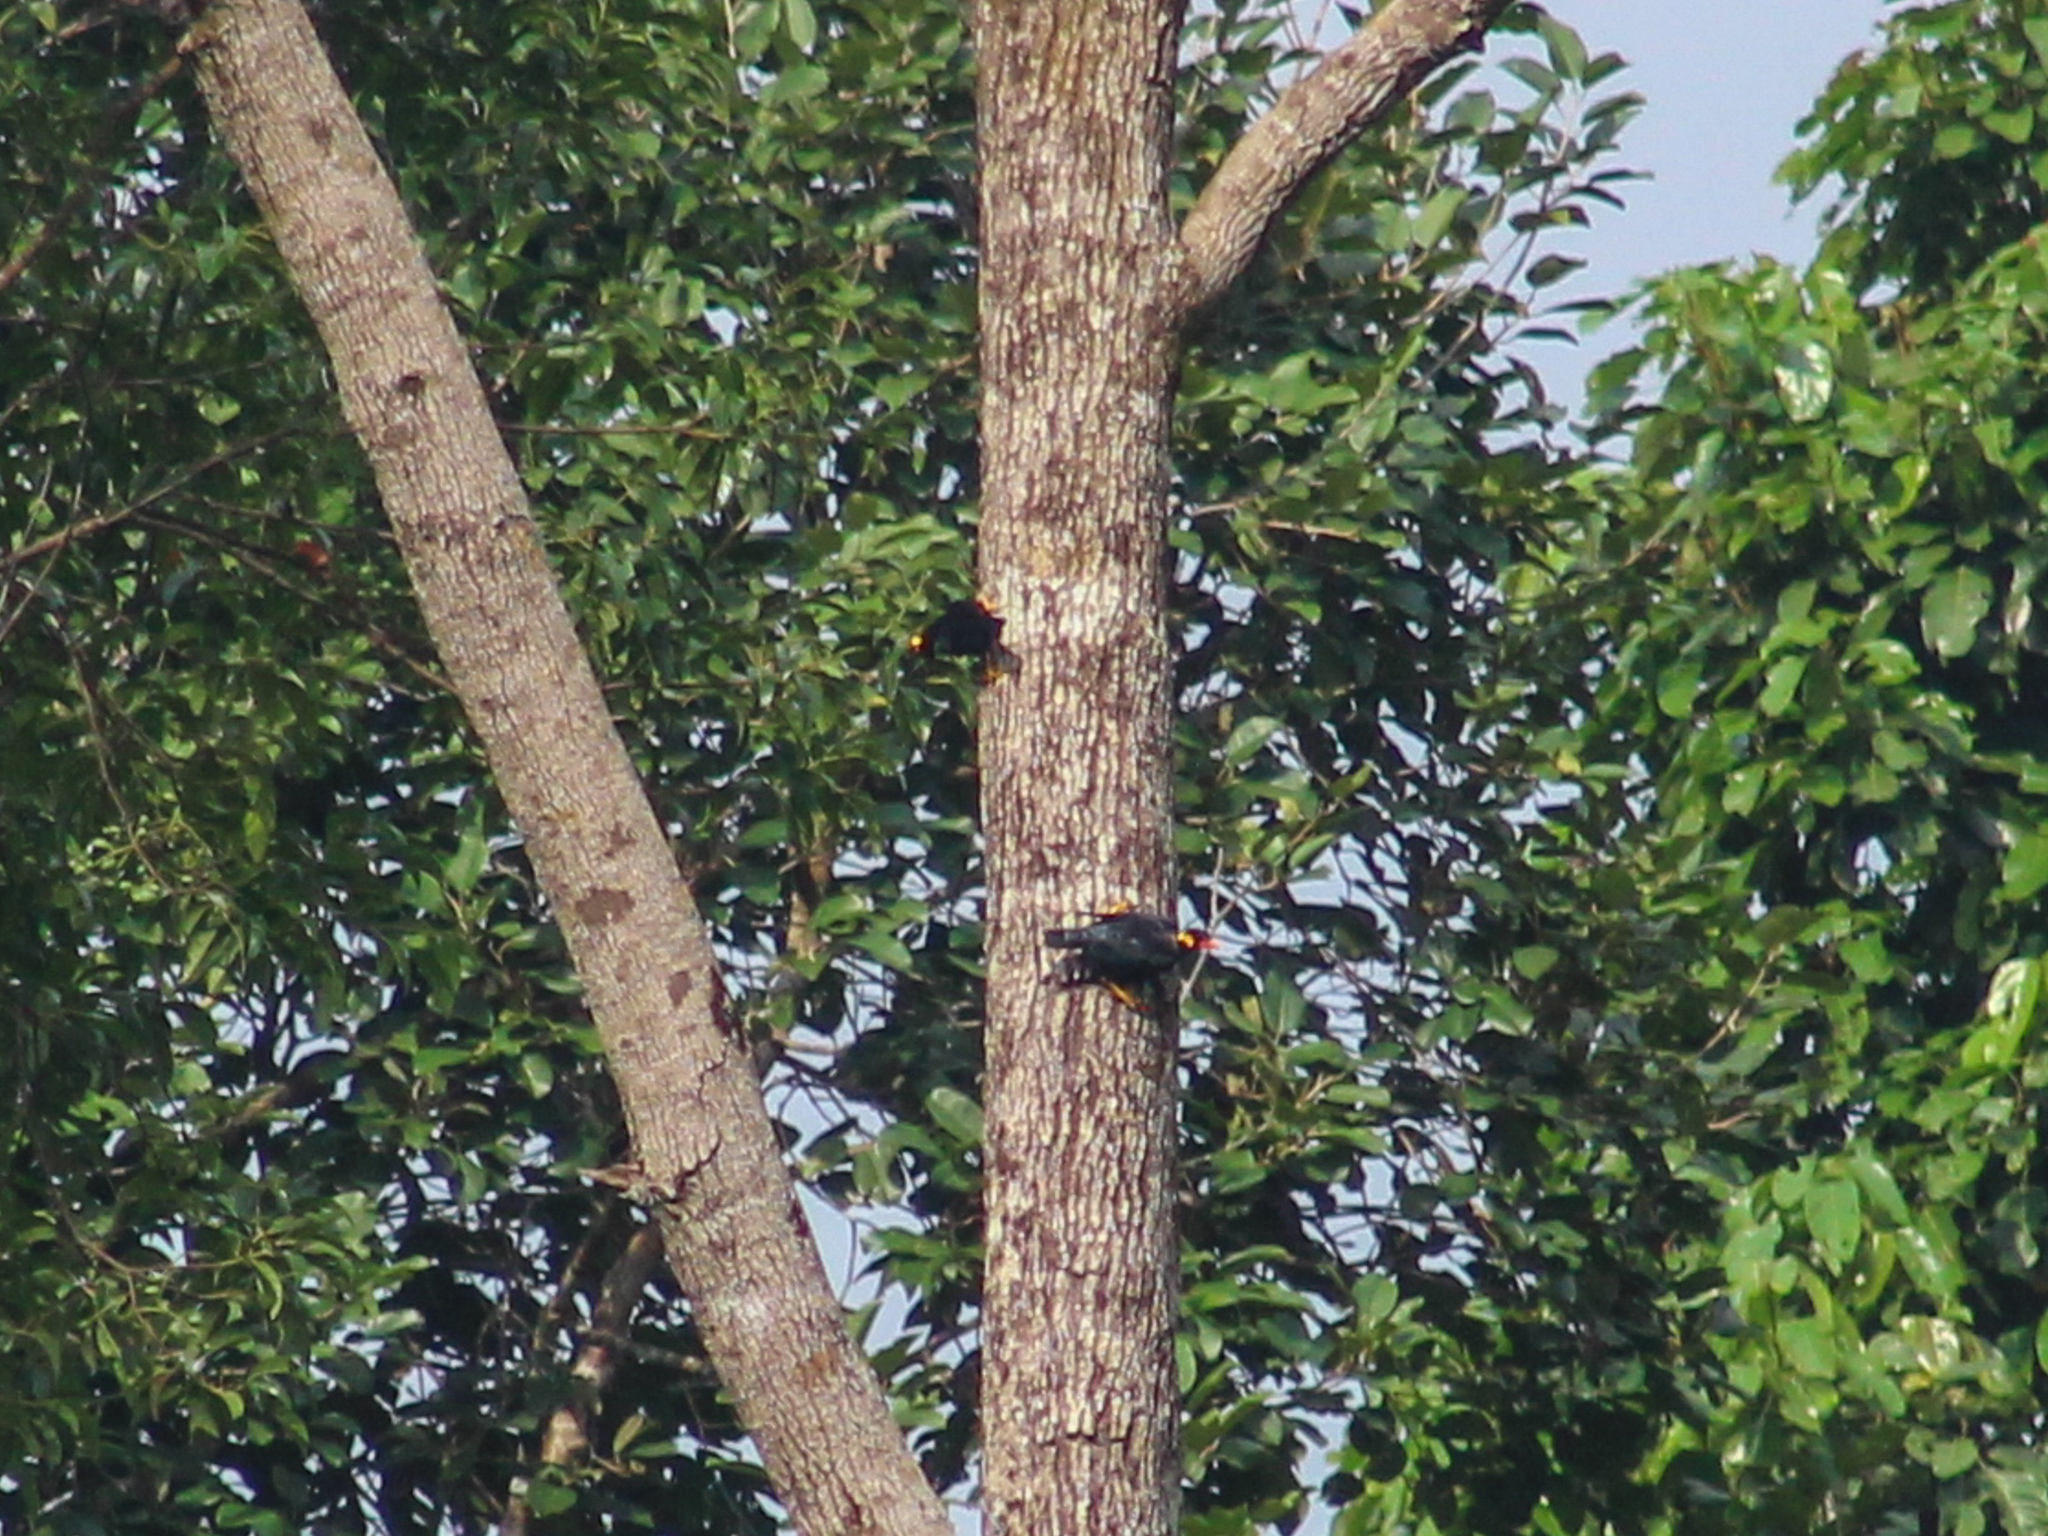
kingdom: Animalia
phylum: Chordata
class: Aves
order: Passeriformes
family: Sturnidae
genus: Gracula
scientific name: Gracula religiosa
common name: Common hill myna
